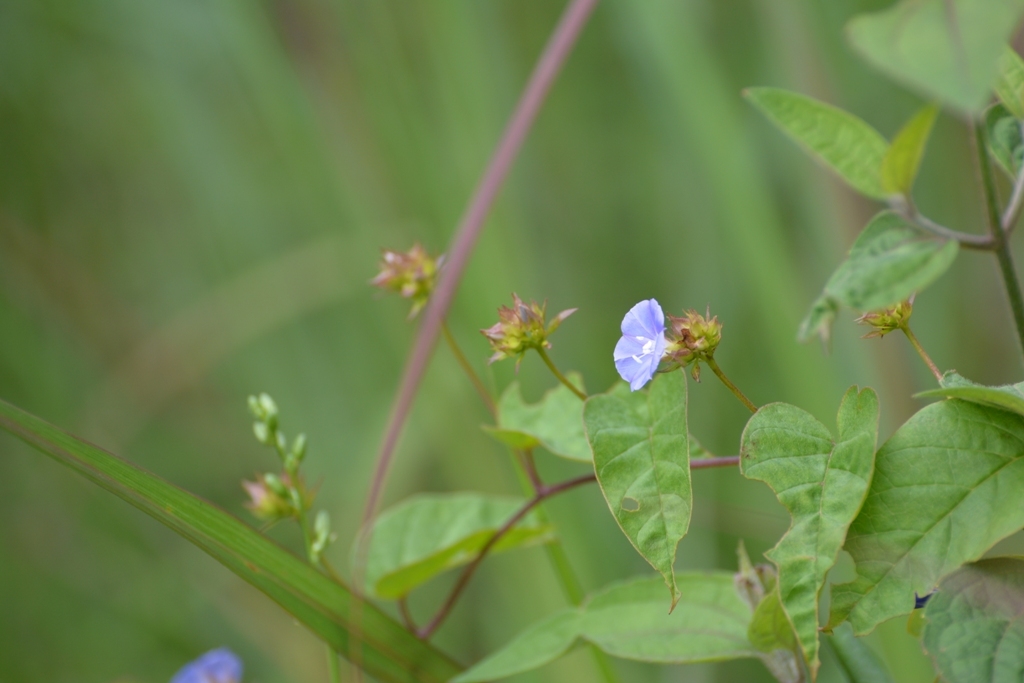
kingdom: Plantae
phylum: Tracheophyta
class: Magnoliopsida
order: Solanales
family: Convolvulaceae
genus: Jacquemontia
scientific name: Jacquemontia pentanthos
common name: Skyblue clustervine
